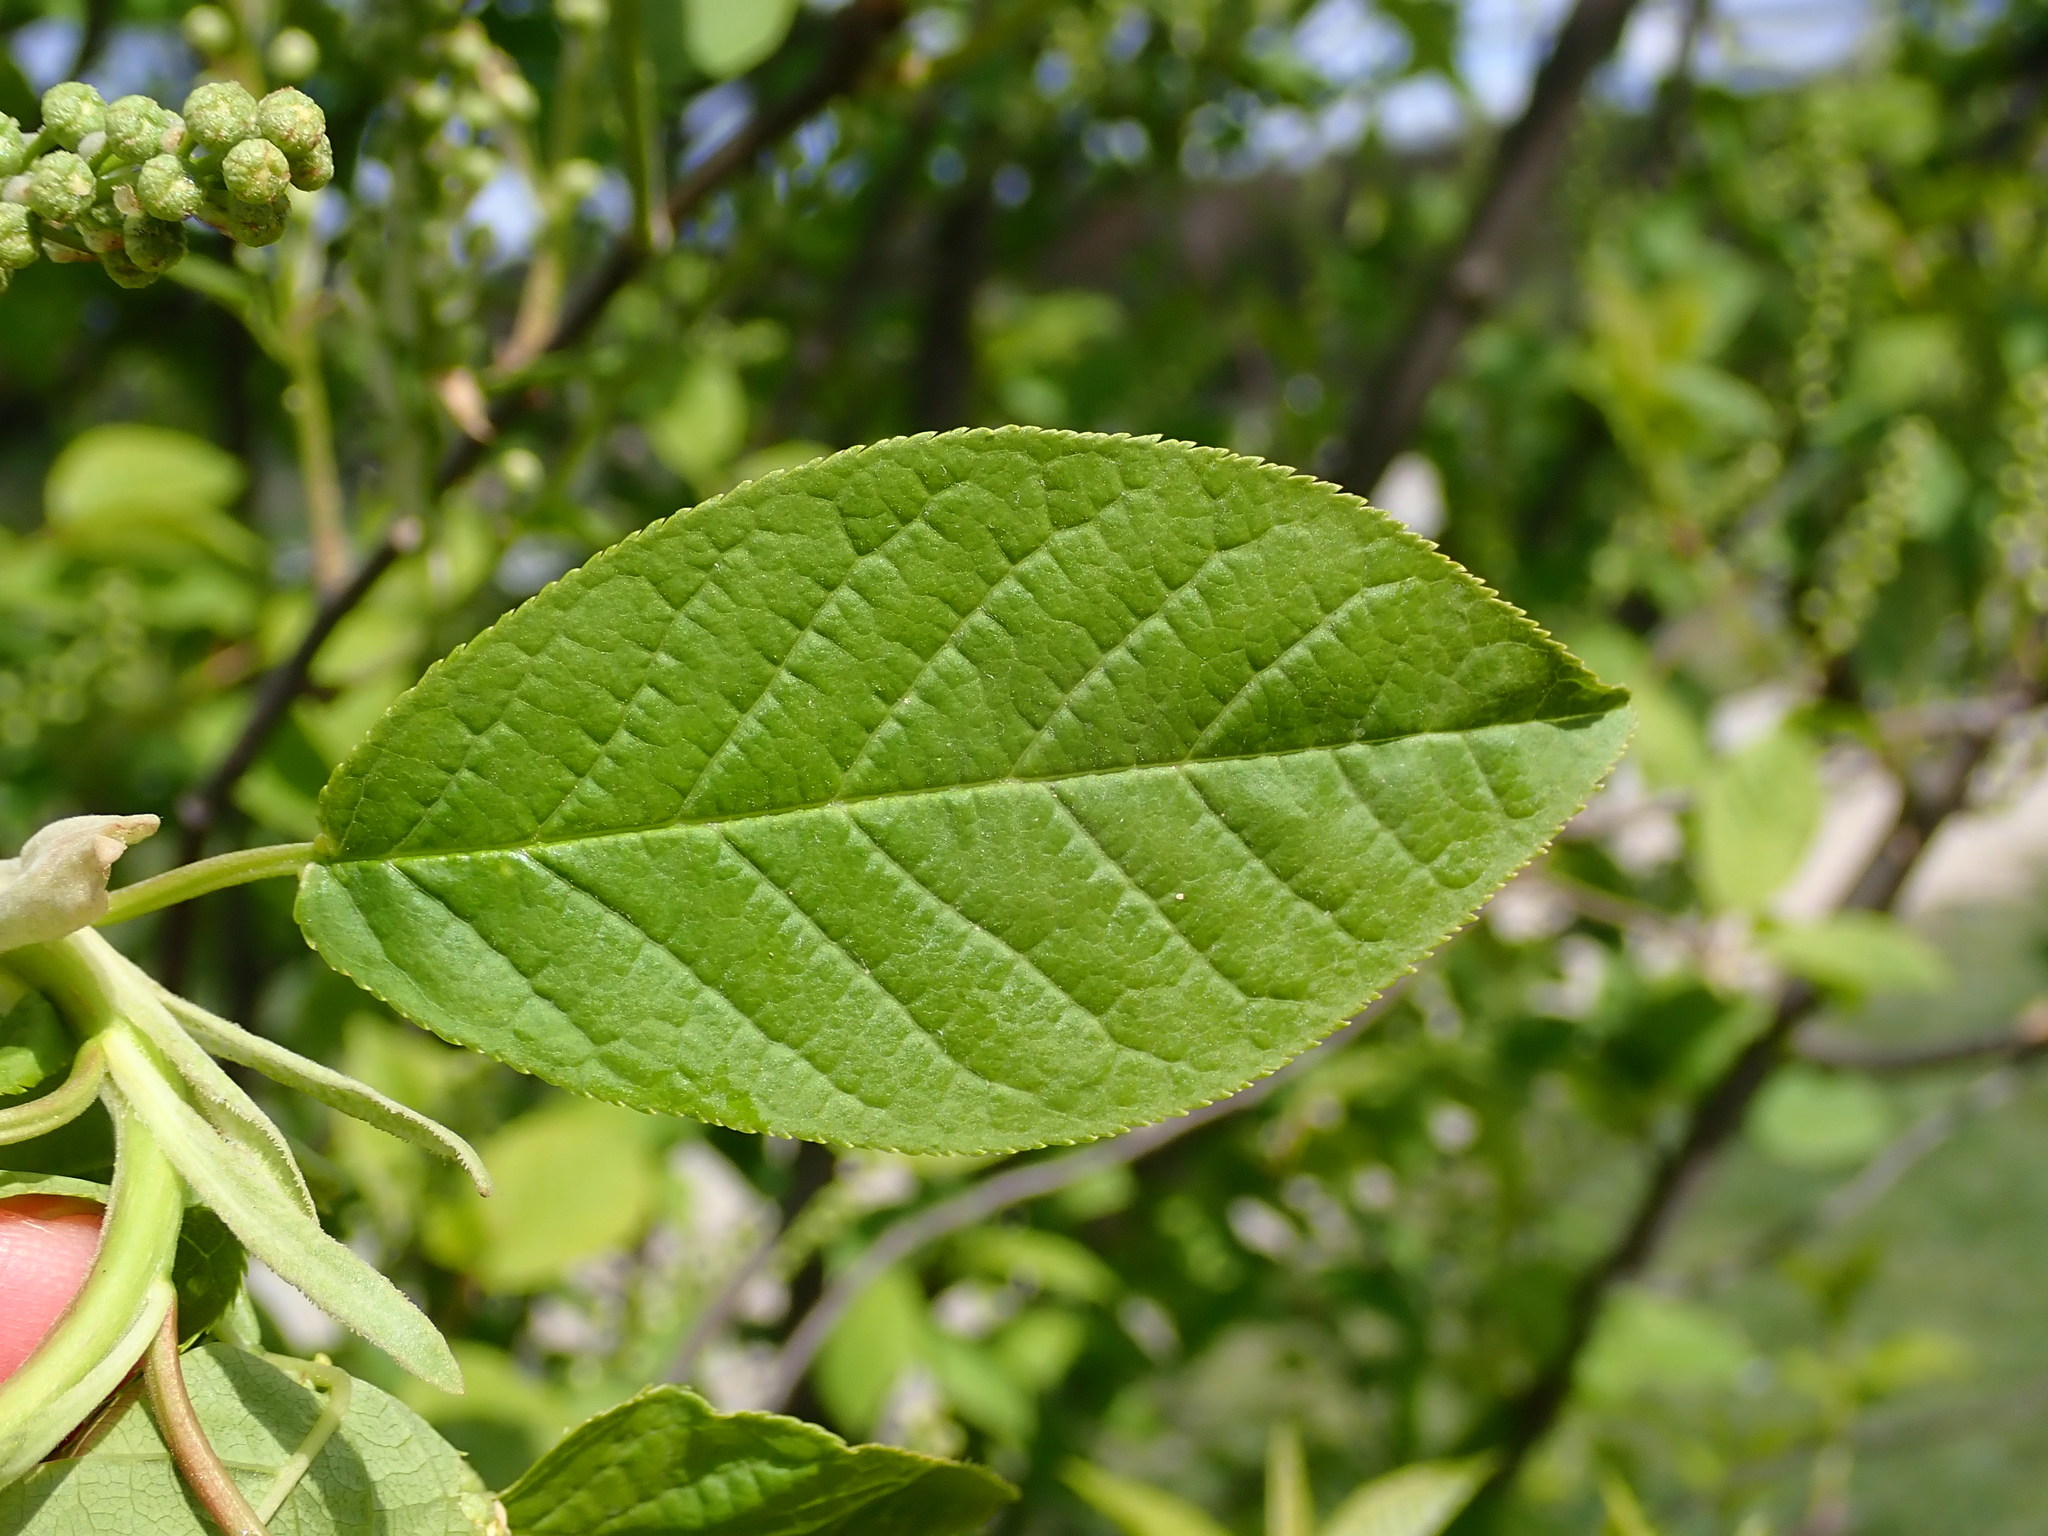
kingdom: Plantae
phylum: Tracheophyta
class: Magnoliopsida
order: Rosales
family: Rosaceae
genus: Prunus
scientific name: Prunus padus
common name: Bird cherry
